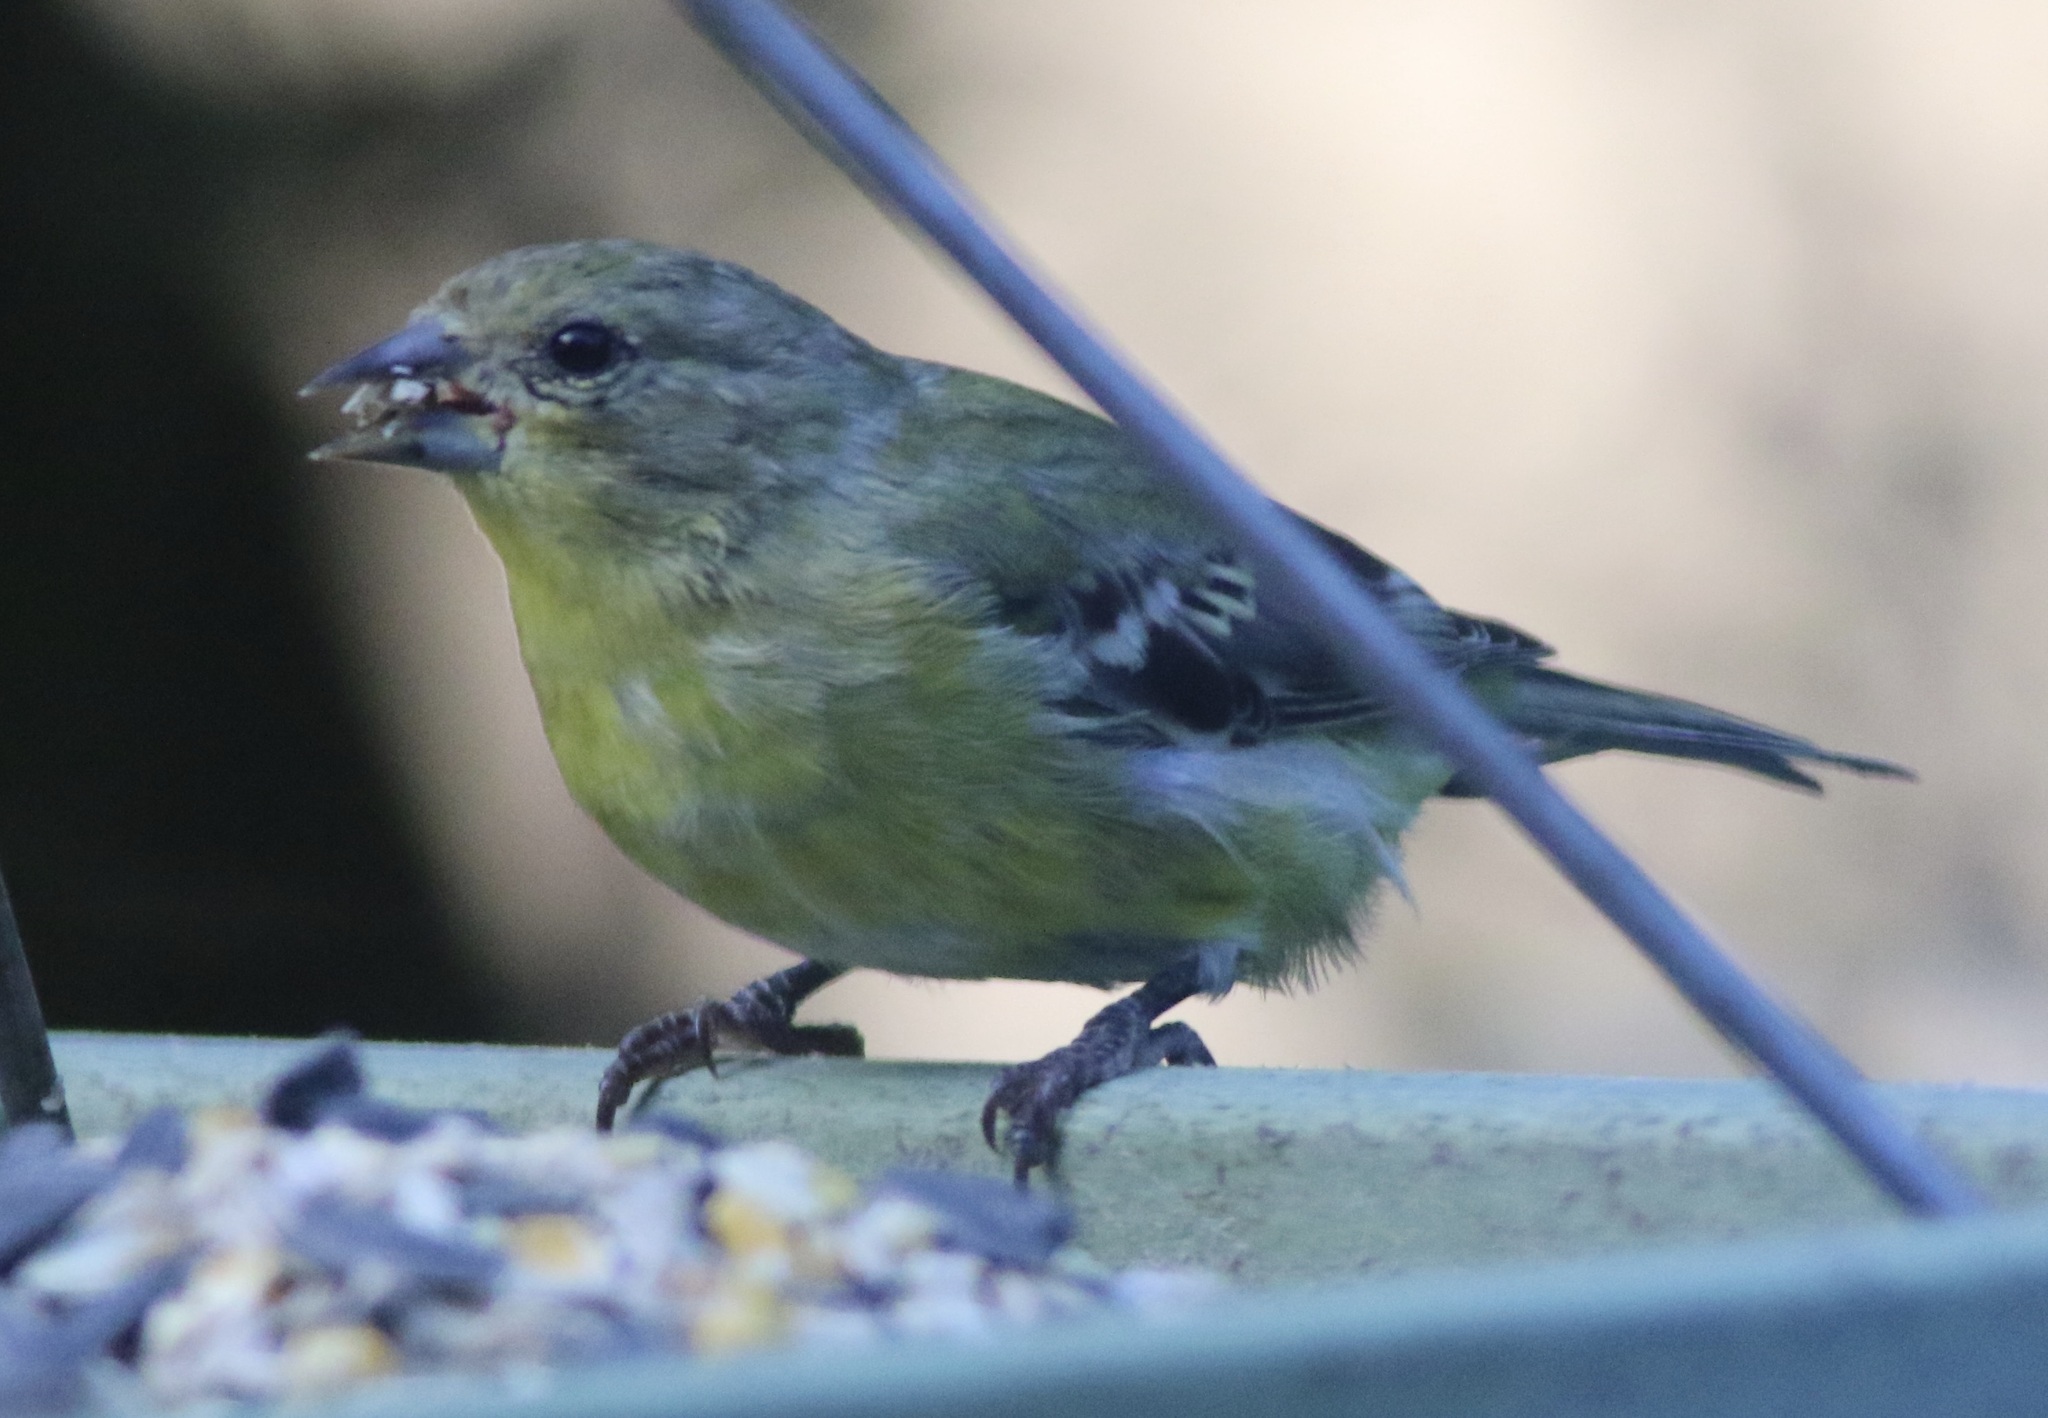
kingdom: Animalia
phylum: Chordata
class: Aves
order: Passeriformes
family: Fringillidae
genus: Spinus
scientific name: Spinus psaltria
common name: Lesser goldfinch
